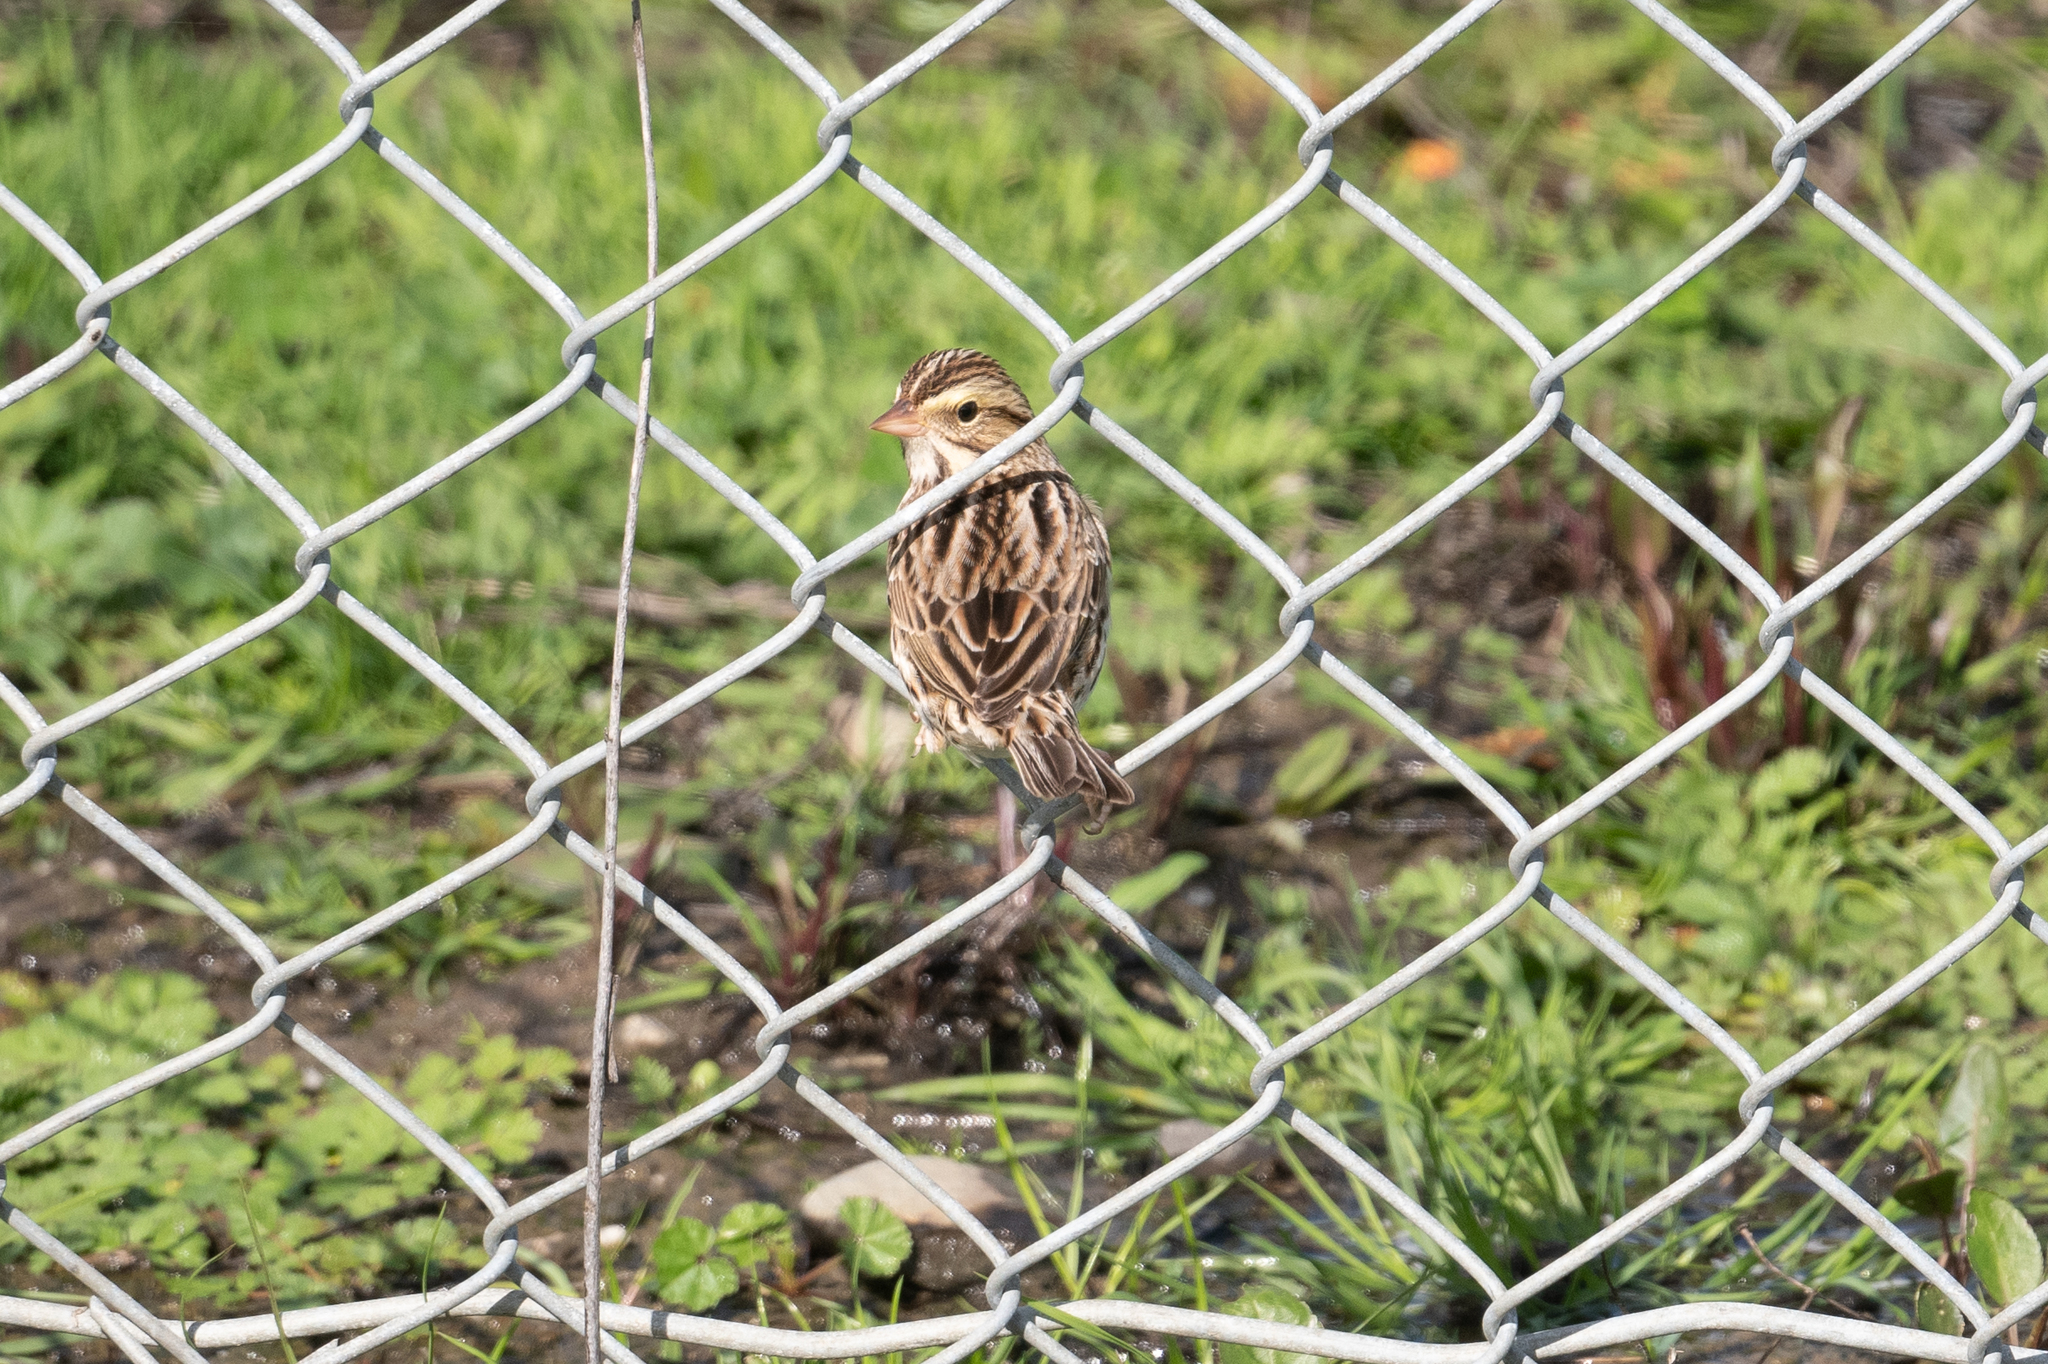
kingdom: Animalia
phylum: Chordata
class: Aves
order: Passeriformes
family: Passerellidae
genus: Passerculus
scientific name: Passerculus sandwichensis
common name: Savannah sparrow
